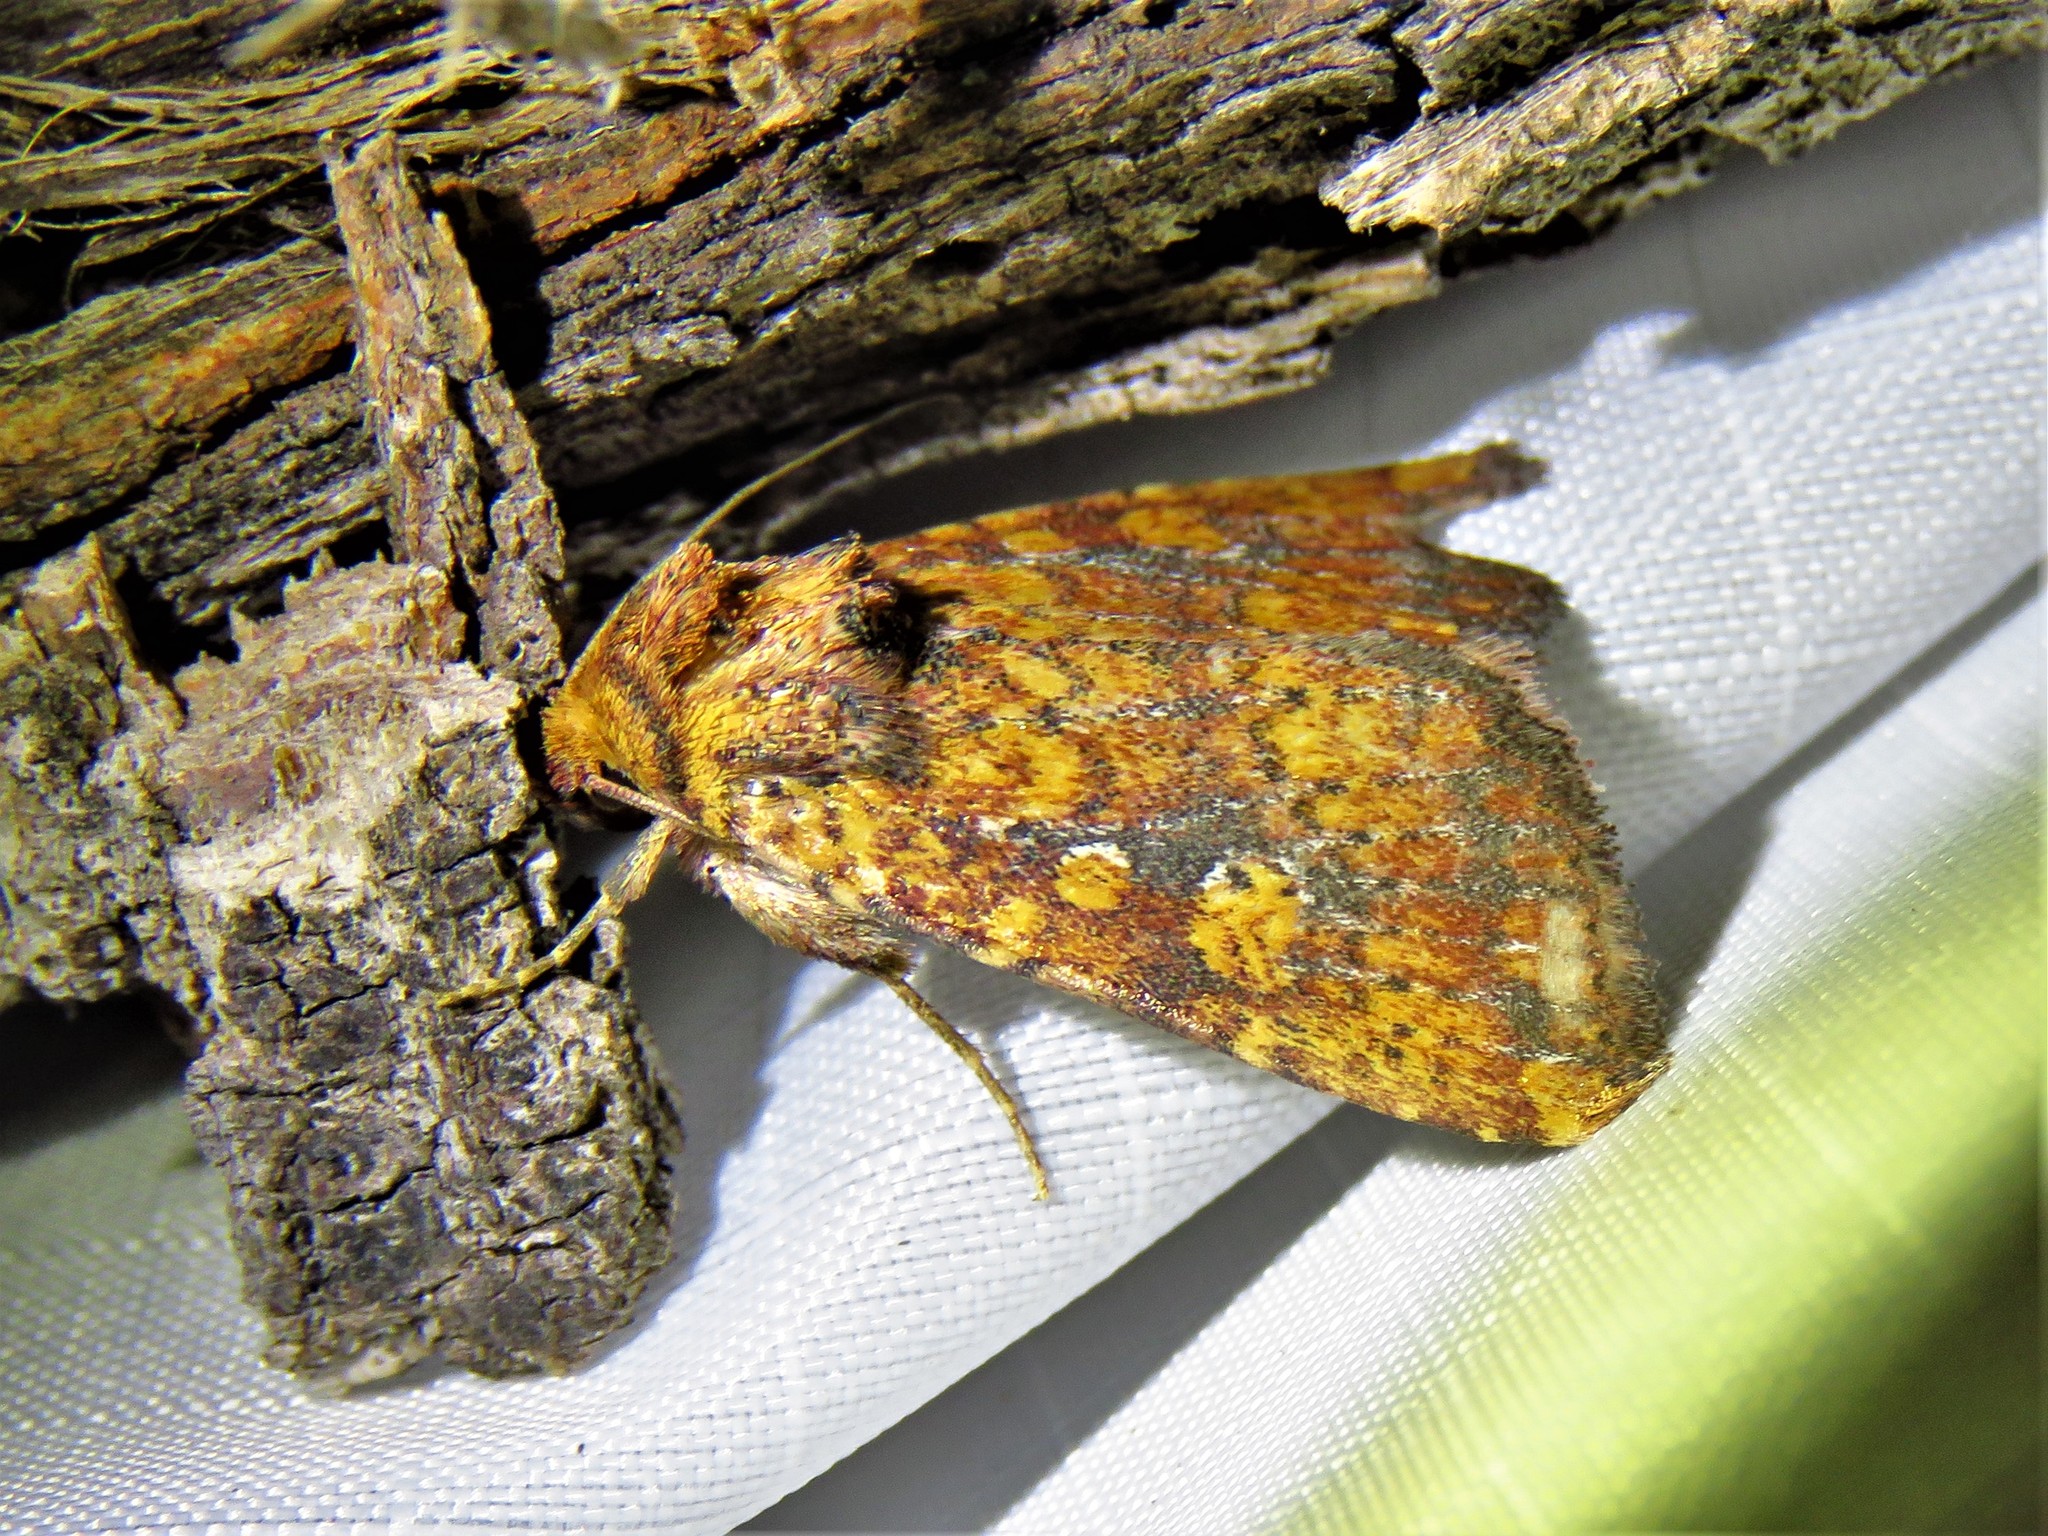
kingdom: Animalia
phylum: Arthropoda
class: Insecta
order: Lepidoptera
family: Noctuidae
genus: Perigea
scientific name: Perigea xanthioides
